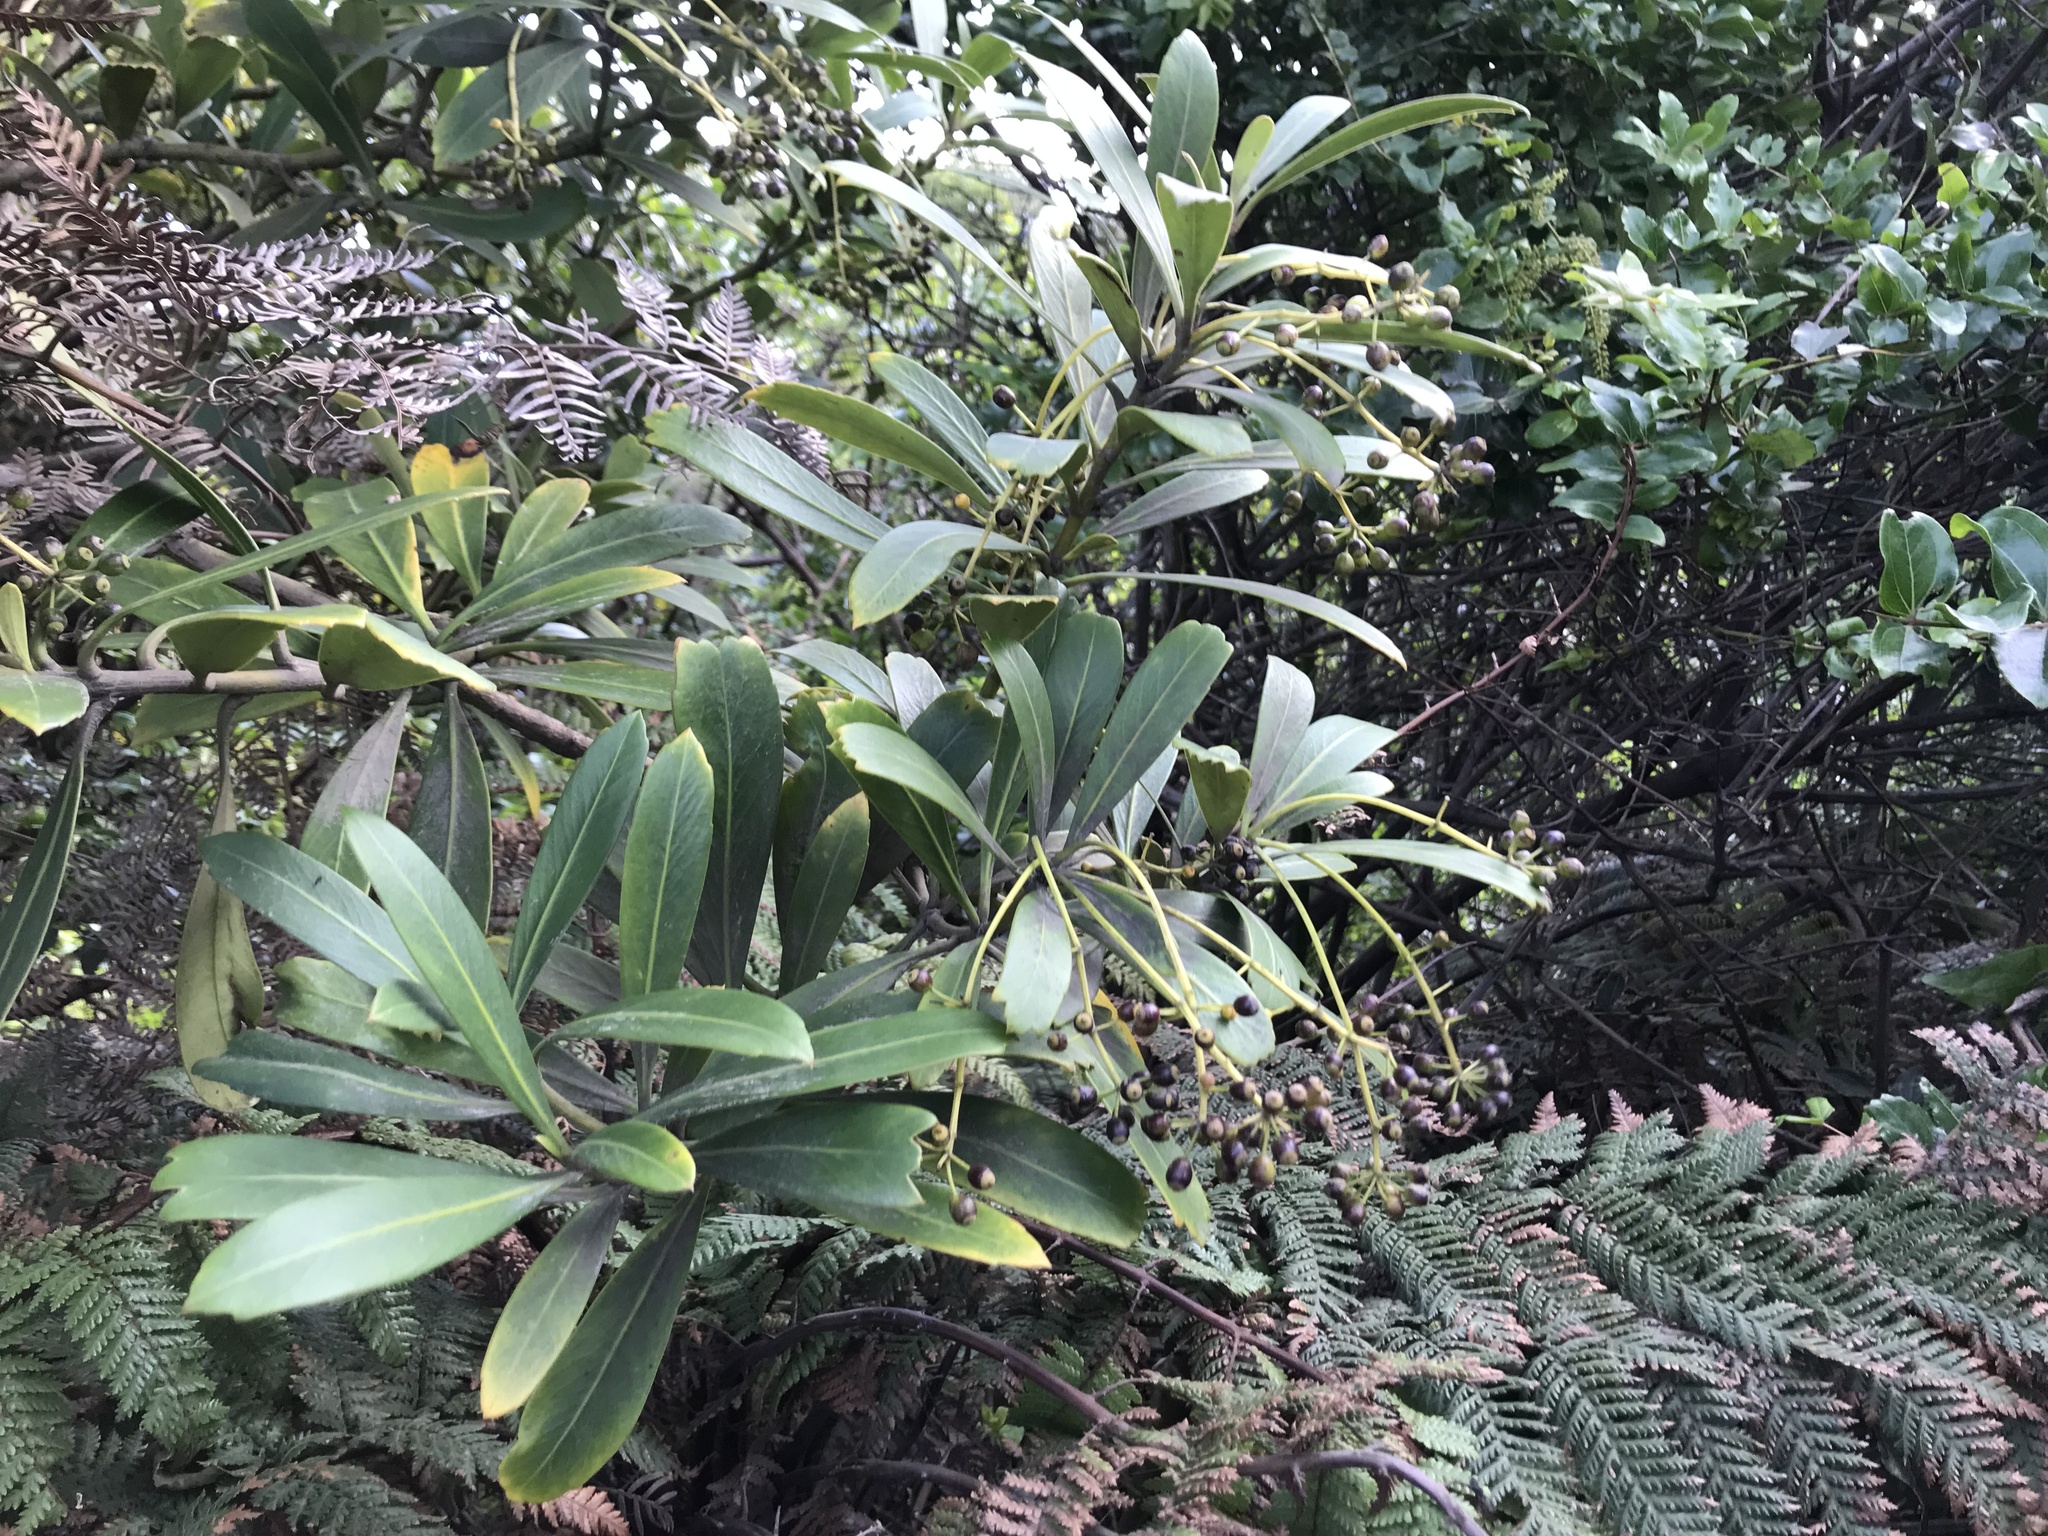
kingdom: Plantae
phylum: Tracheophyta
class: Magnoliopsida
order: Apiales
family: Araliaceae
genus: Pseudopanax
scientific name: Pseudopanax chathamicus
